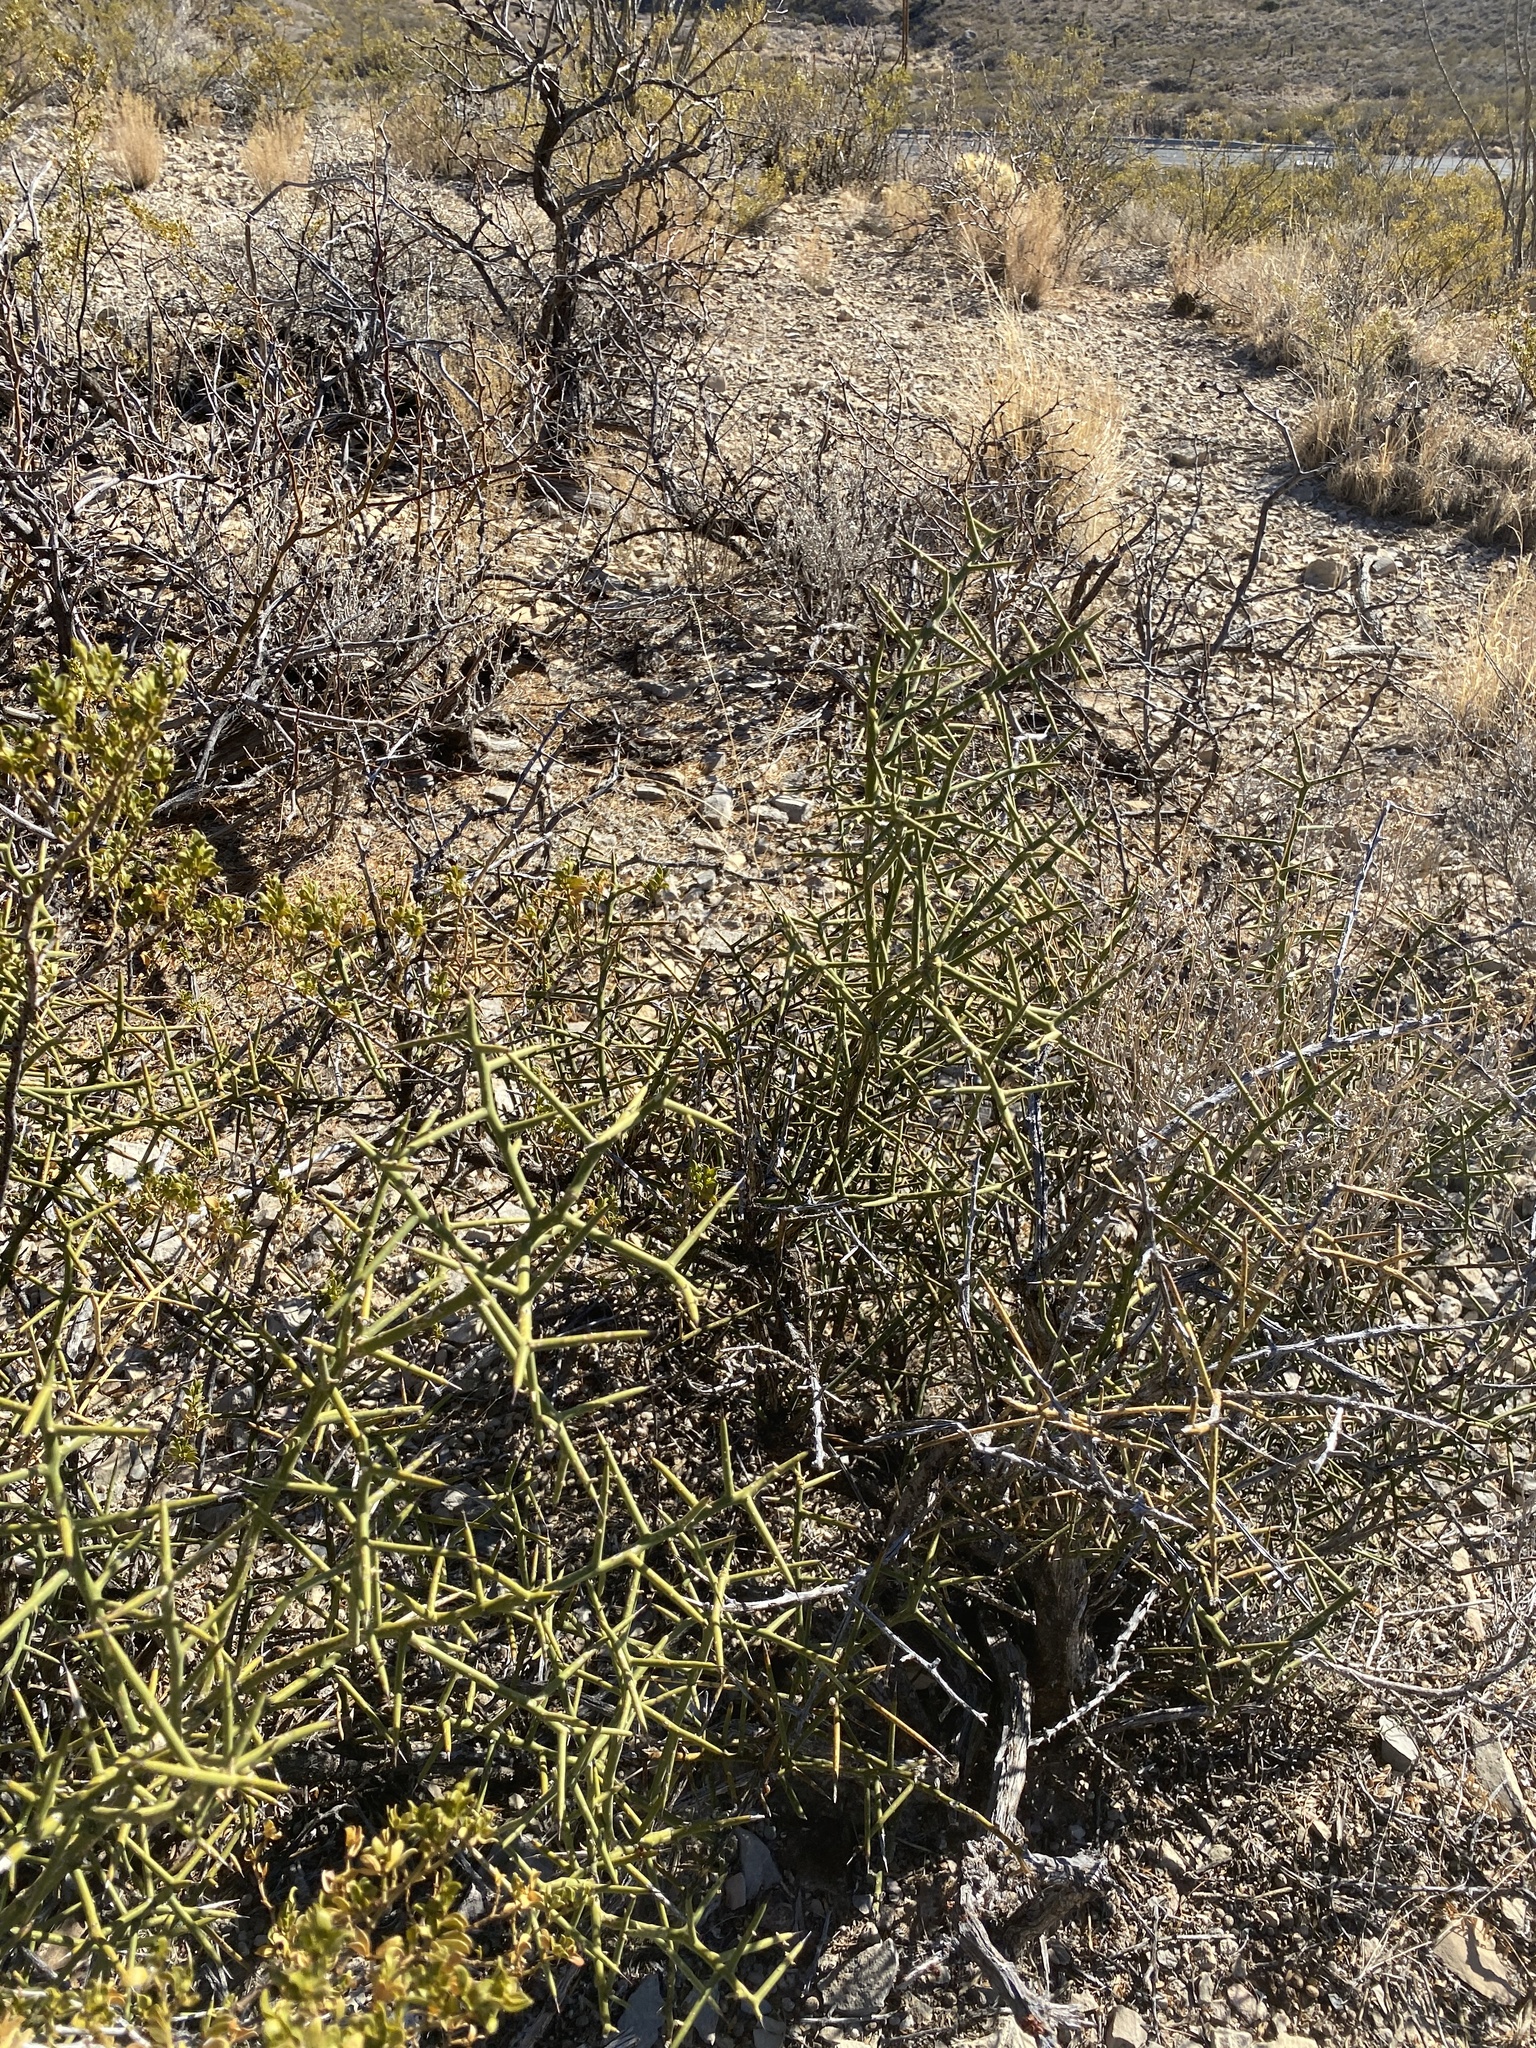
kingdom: Plantae
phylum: Tracheophyta
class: Magnoliopsida
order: Brassicales
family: Koeberliniaceae
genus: Koeberlinia
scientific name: Koeberlinia spinosa
